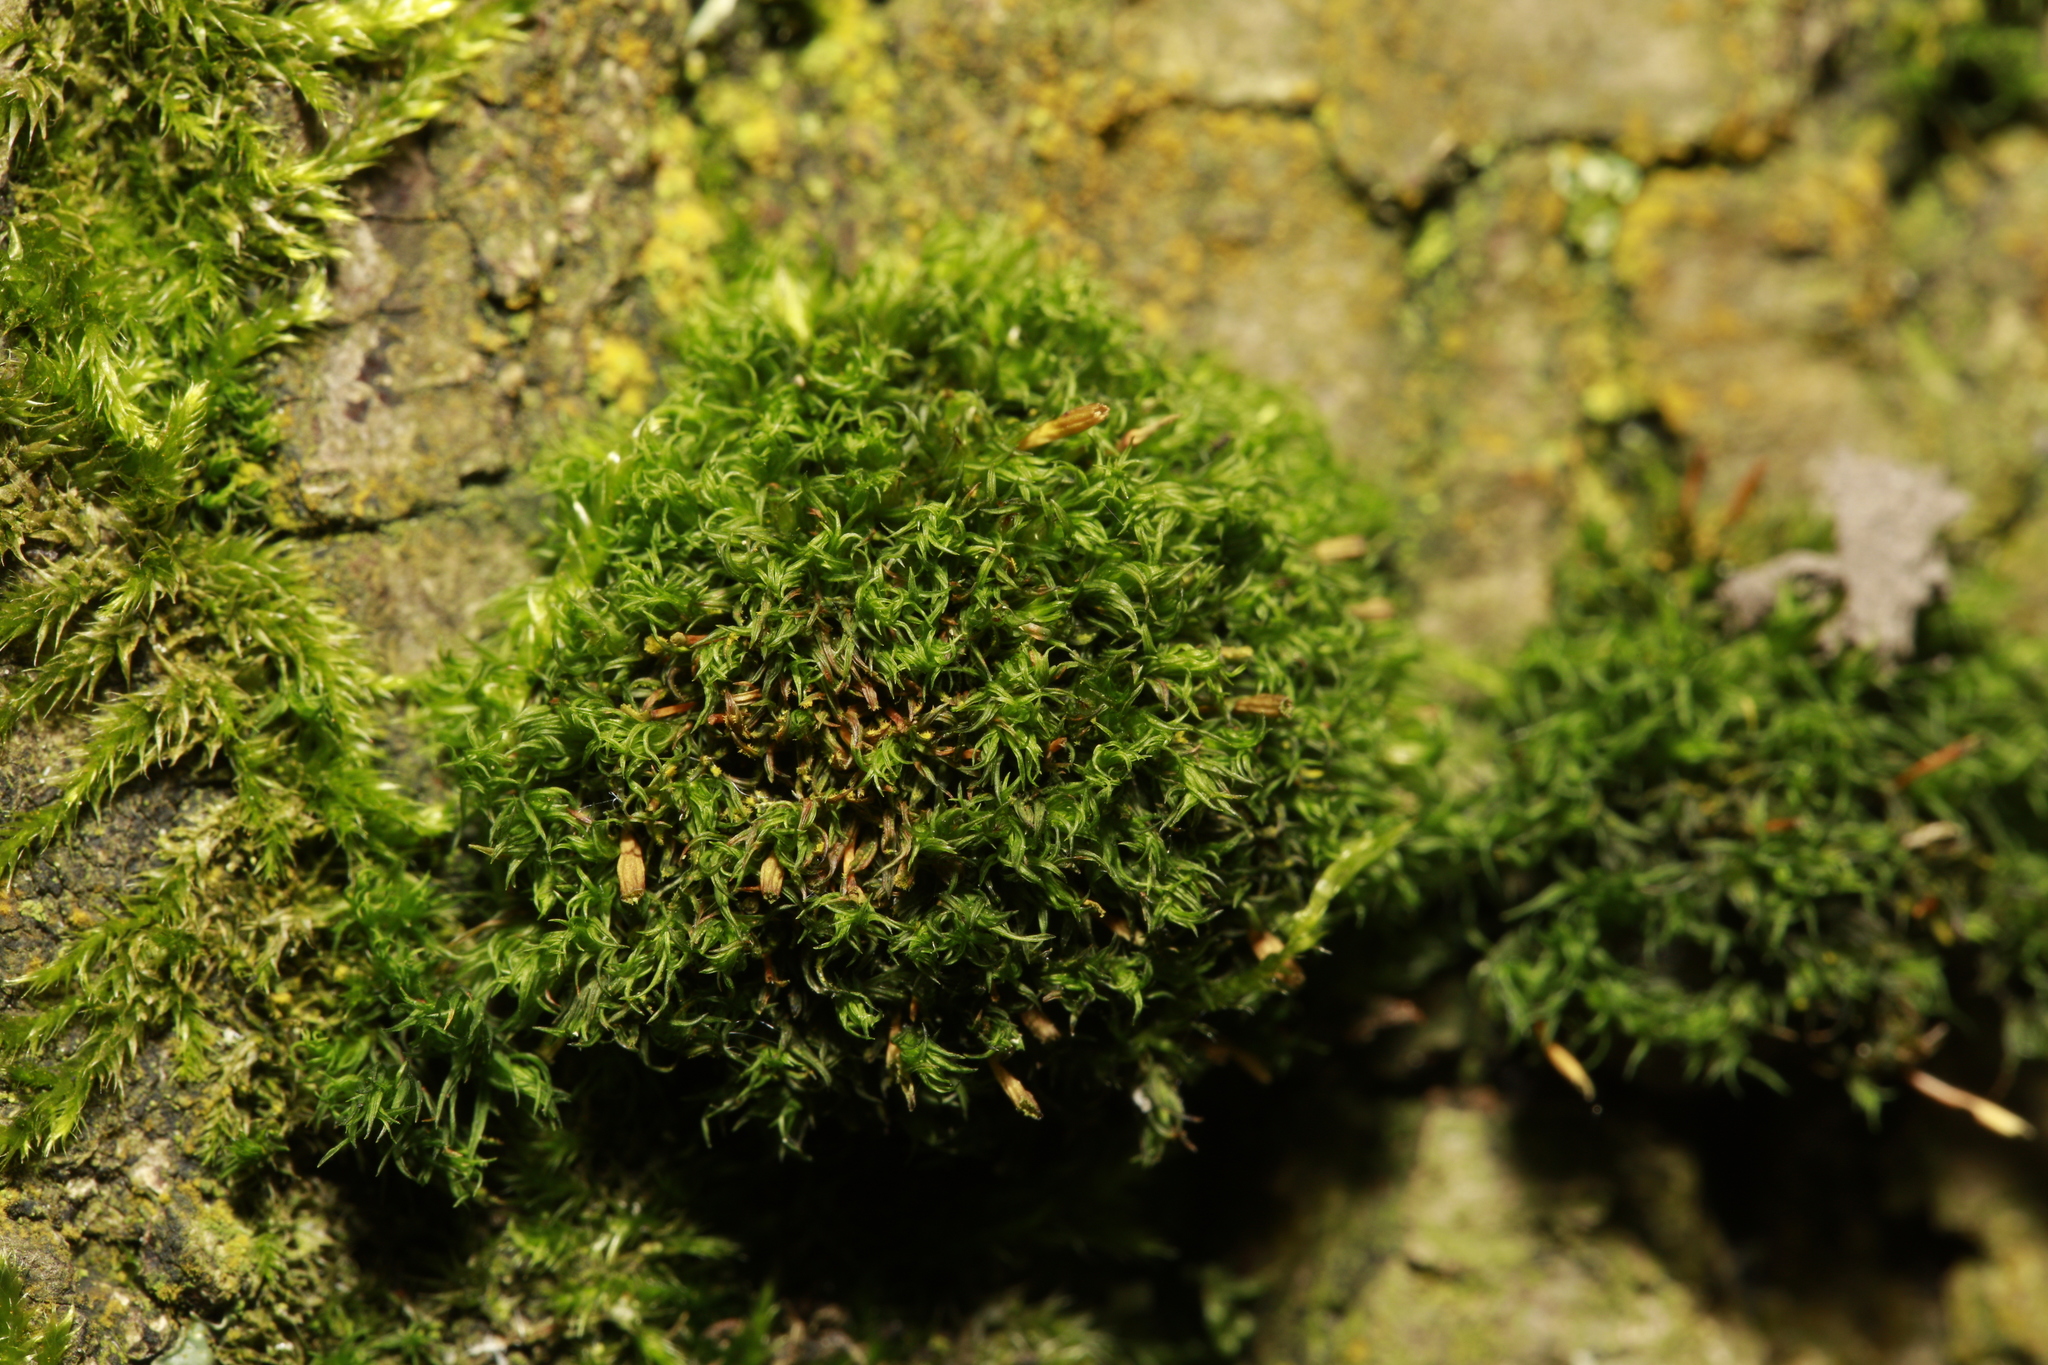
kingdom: Plantae
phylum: Bryophyta
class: Bryopsida
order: Orthotrichales
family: Orthotrichaceae
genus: Ulota
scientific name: Ulota crispa
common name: Crisped pincushion moss
